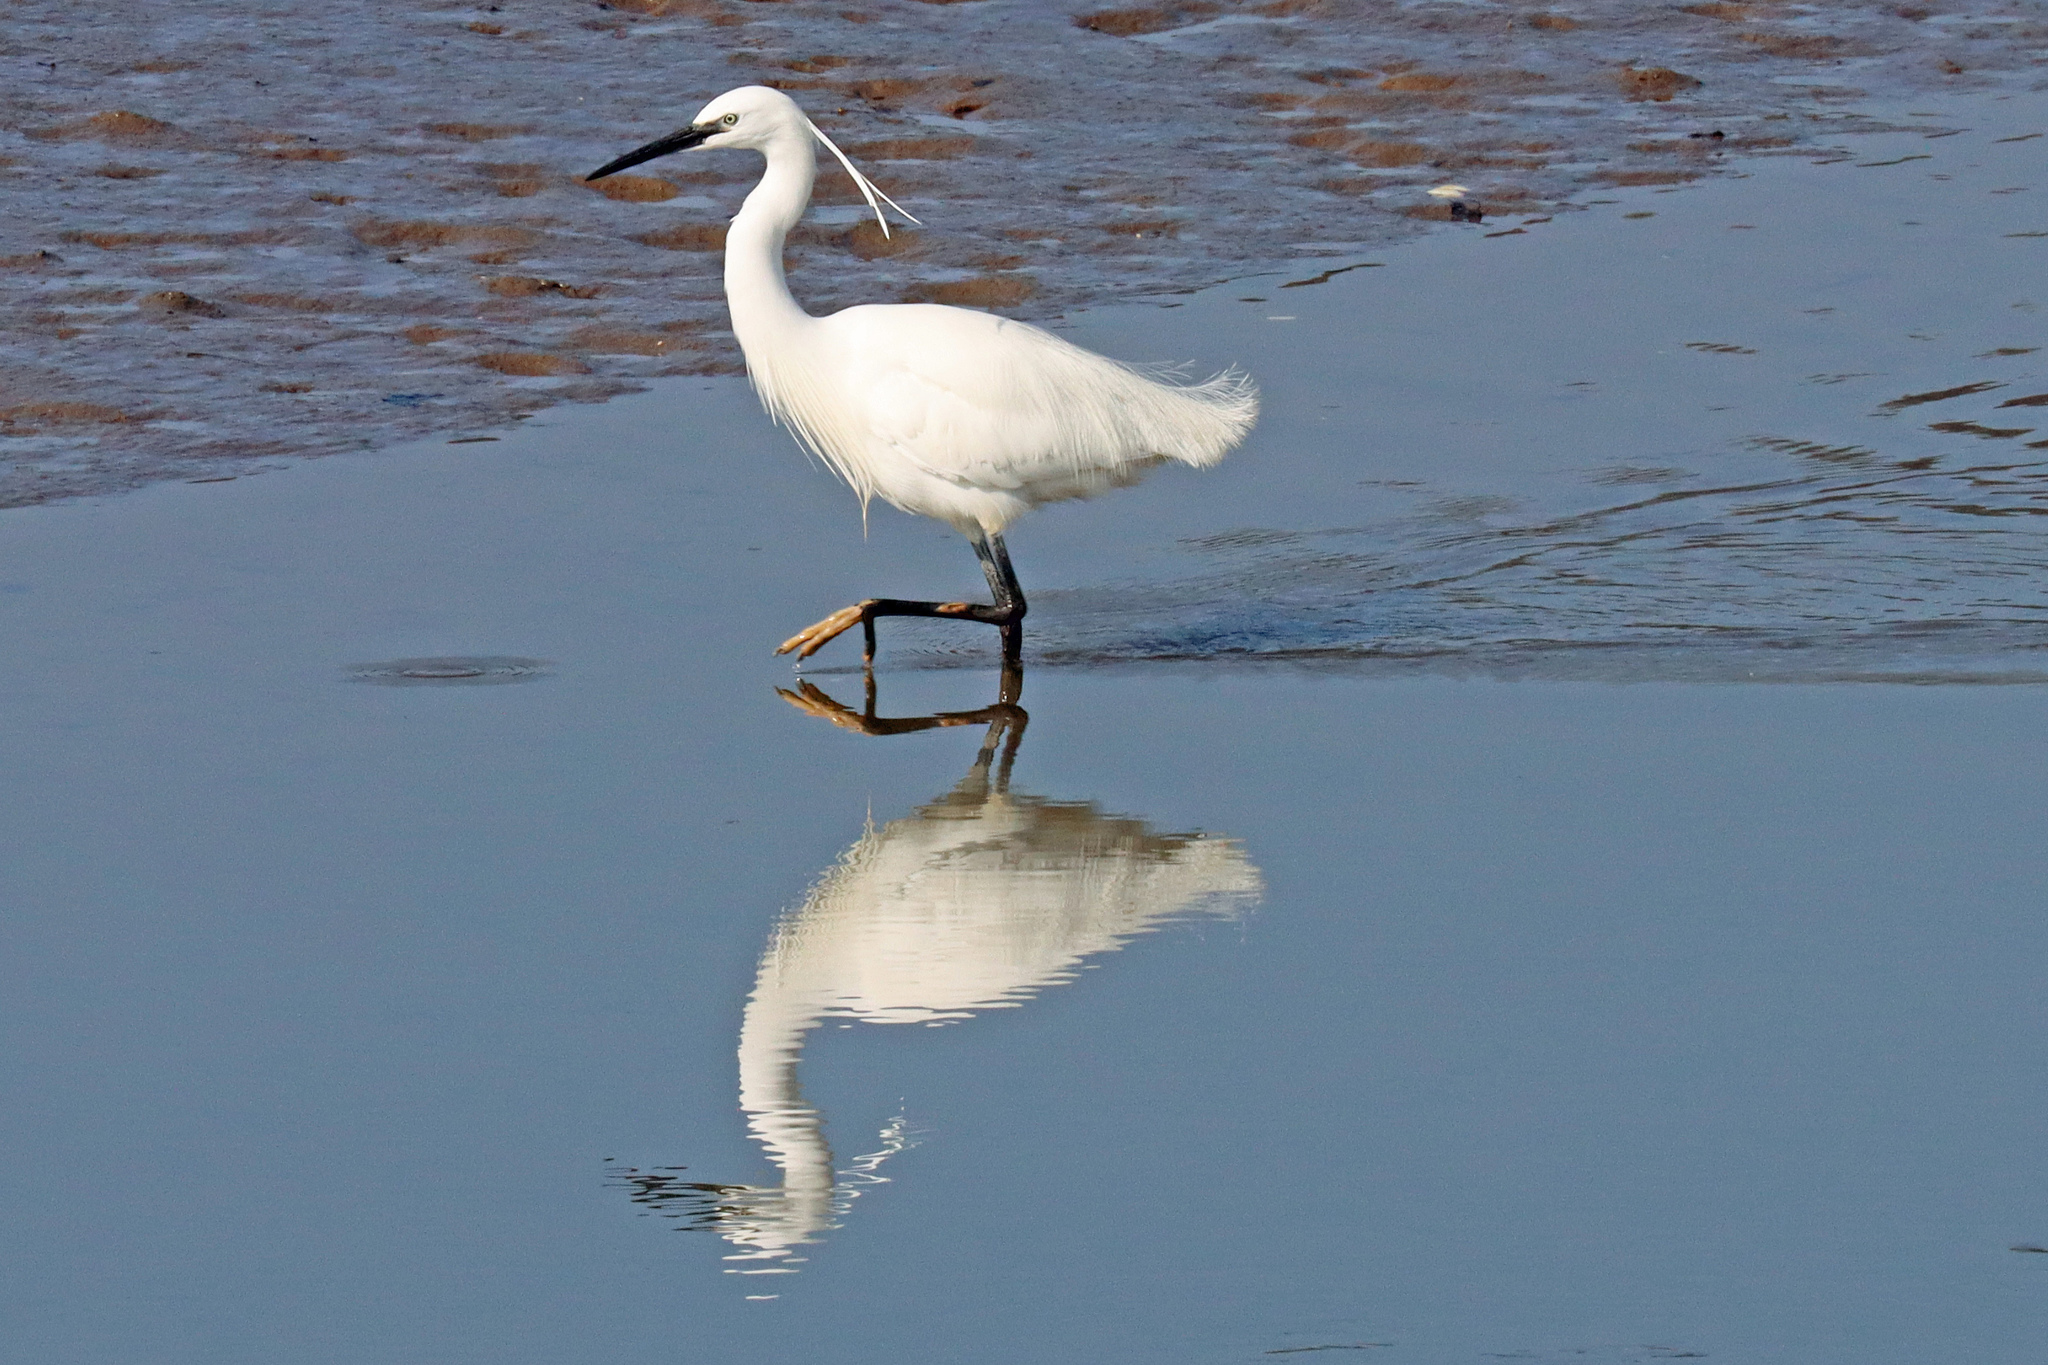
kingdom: Animalia
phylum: Chordata
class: Aves
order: Pelecaniformes
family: Ardeidae
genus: Egretta
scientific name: Egretta garzetta
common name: Little egret
